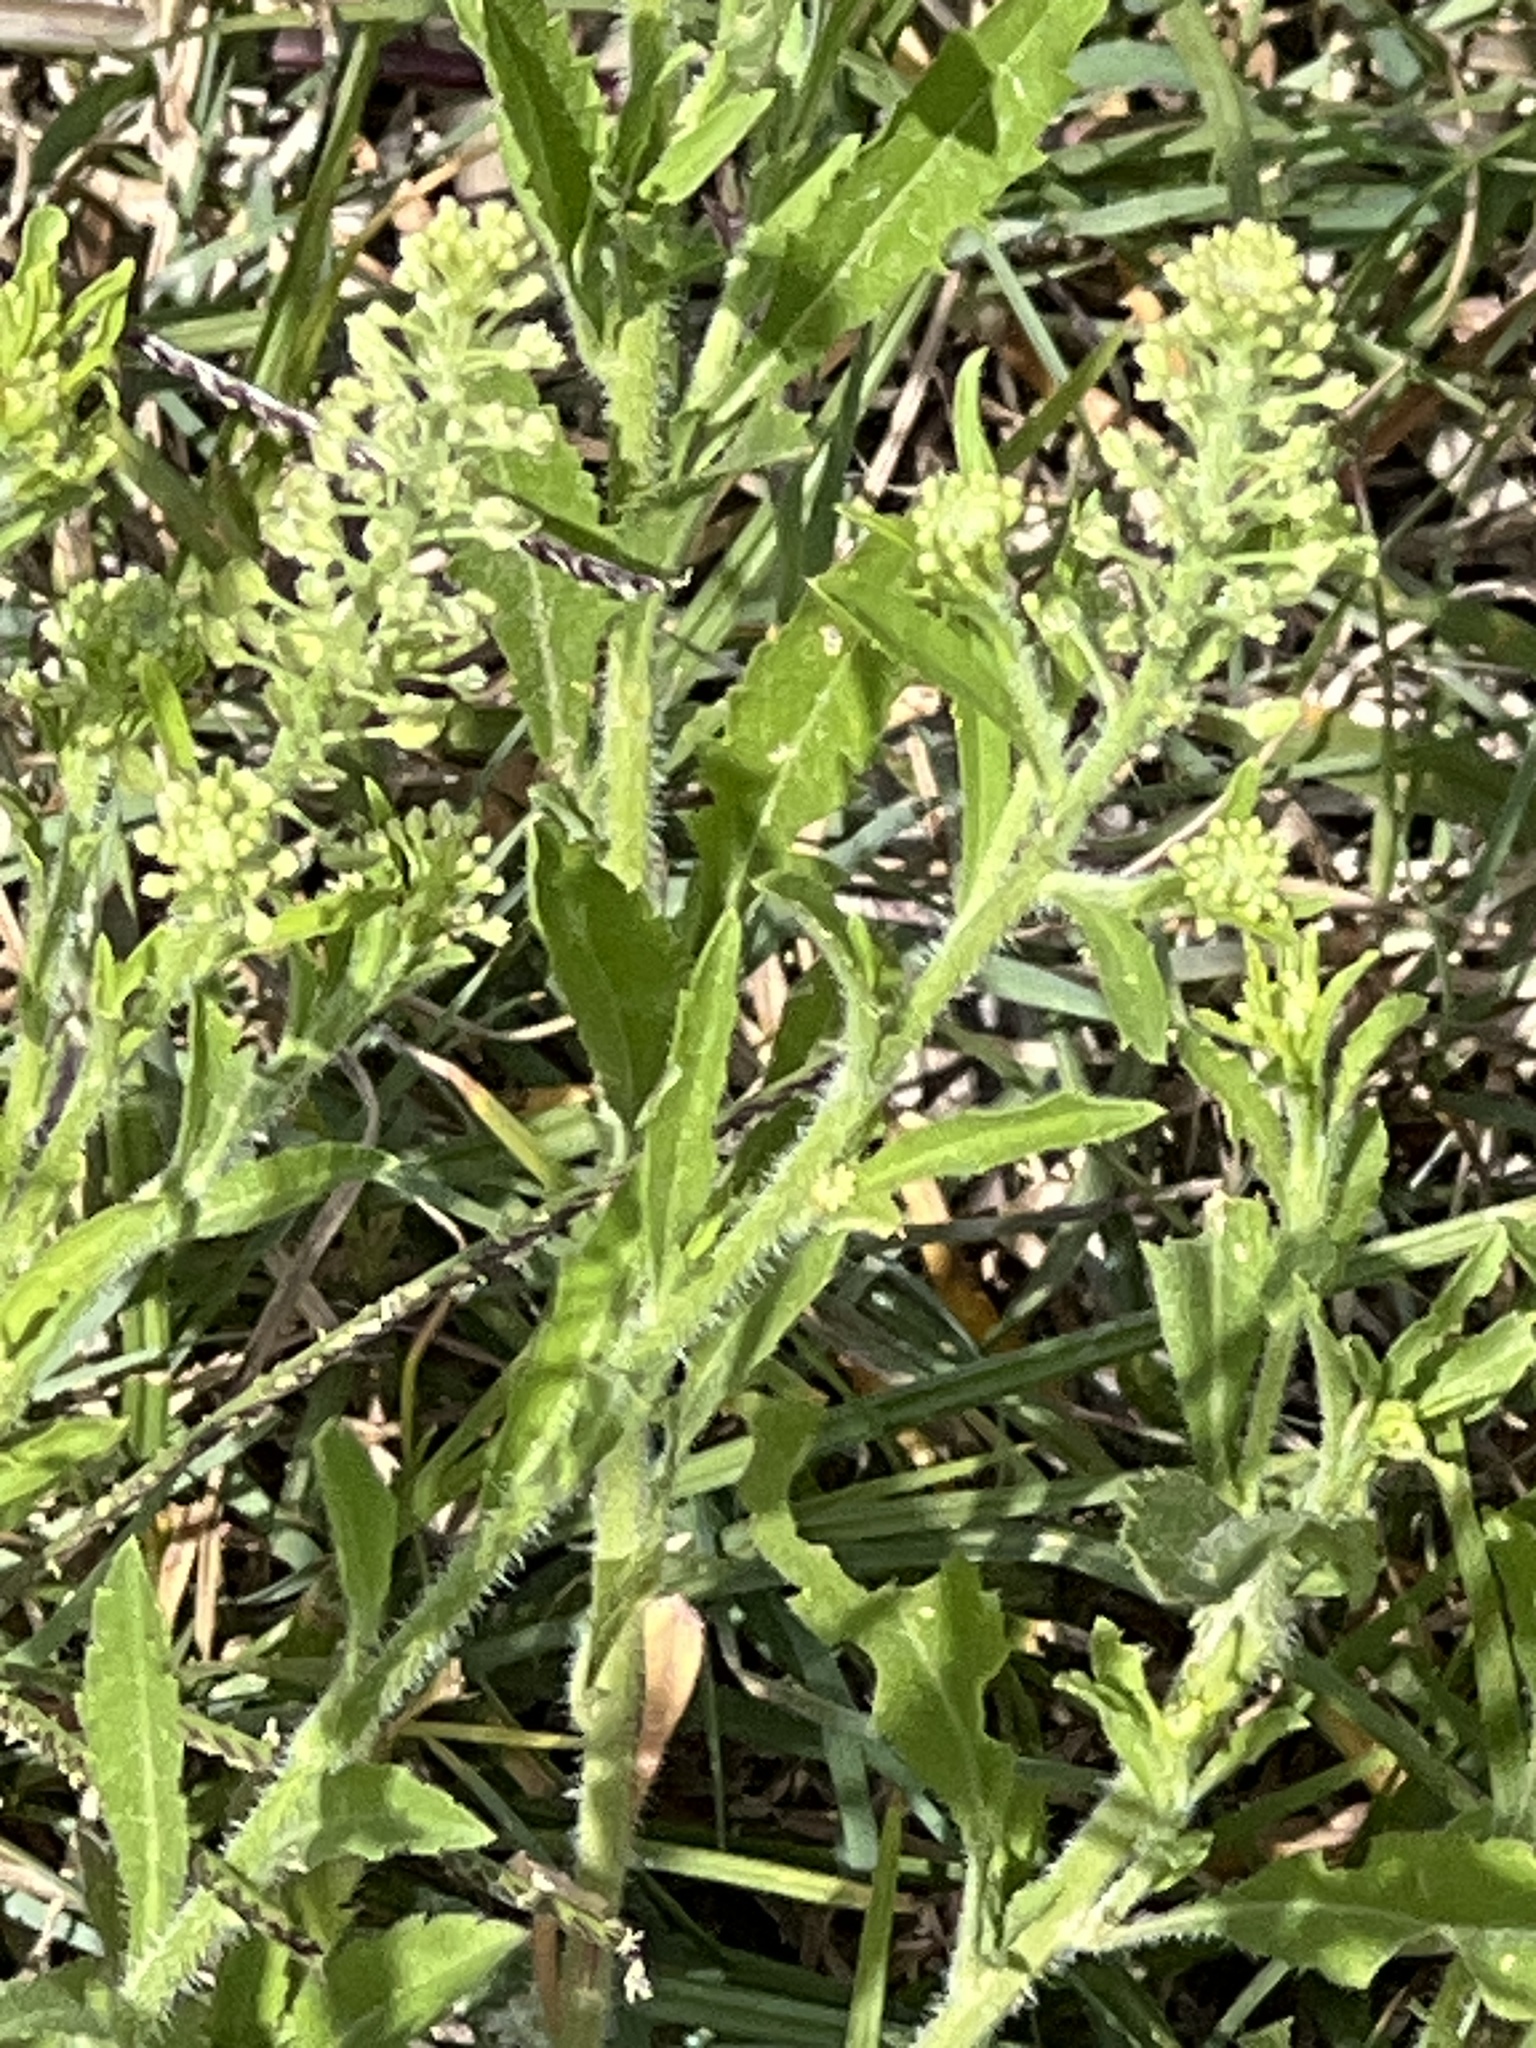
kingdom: Plantae
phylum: Tracheophyta
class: Magnoliopsida
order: Brassicales
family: Brassicaceae
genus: Lepidium
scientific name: Lepidium austrinum
